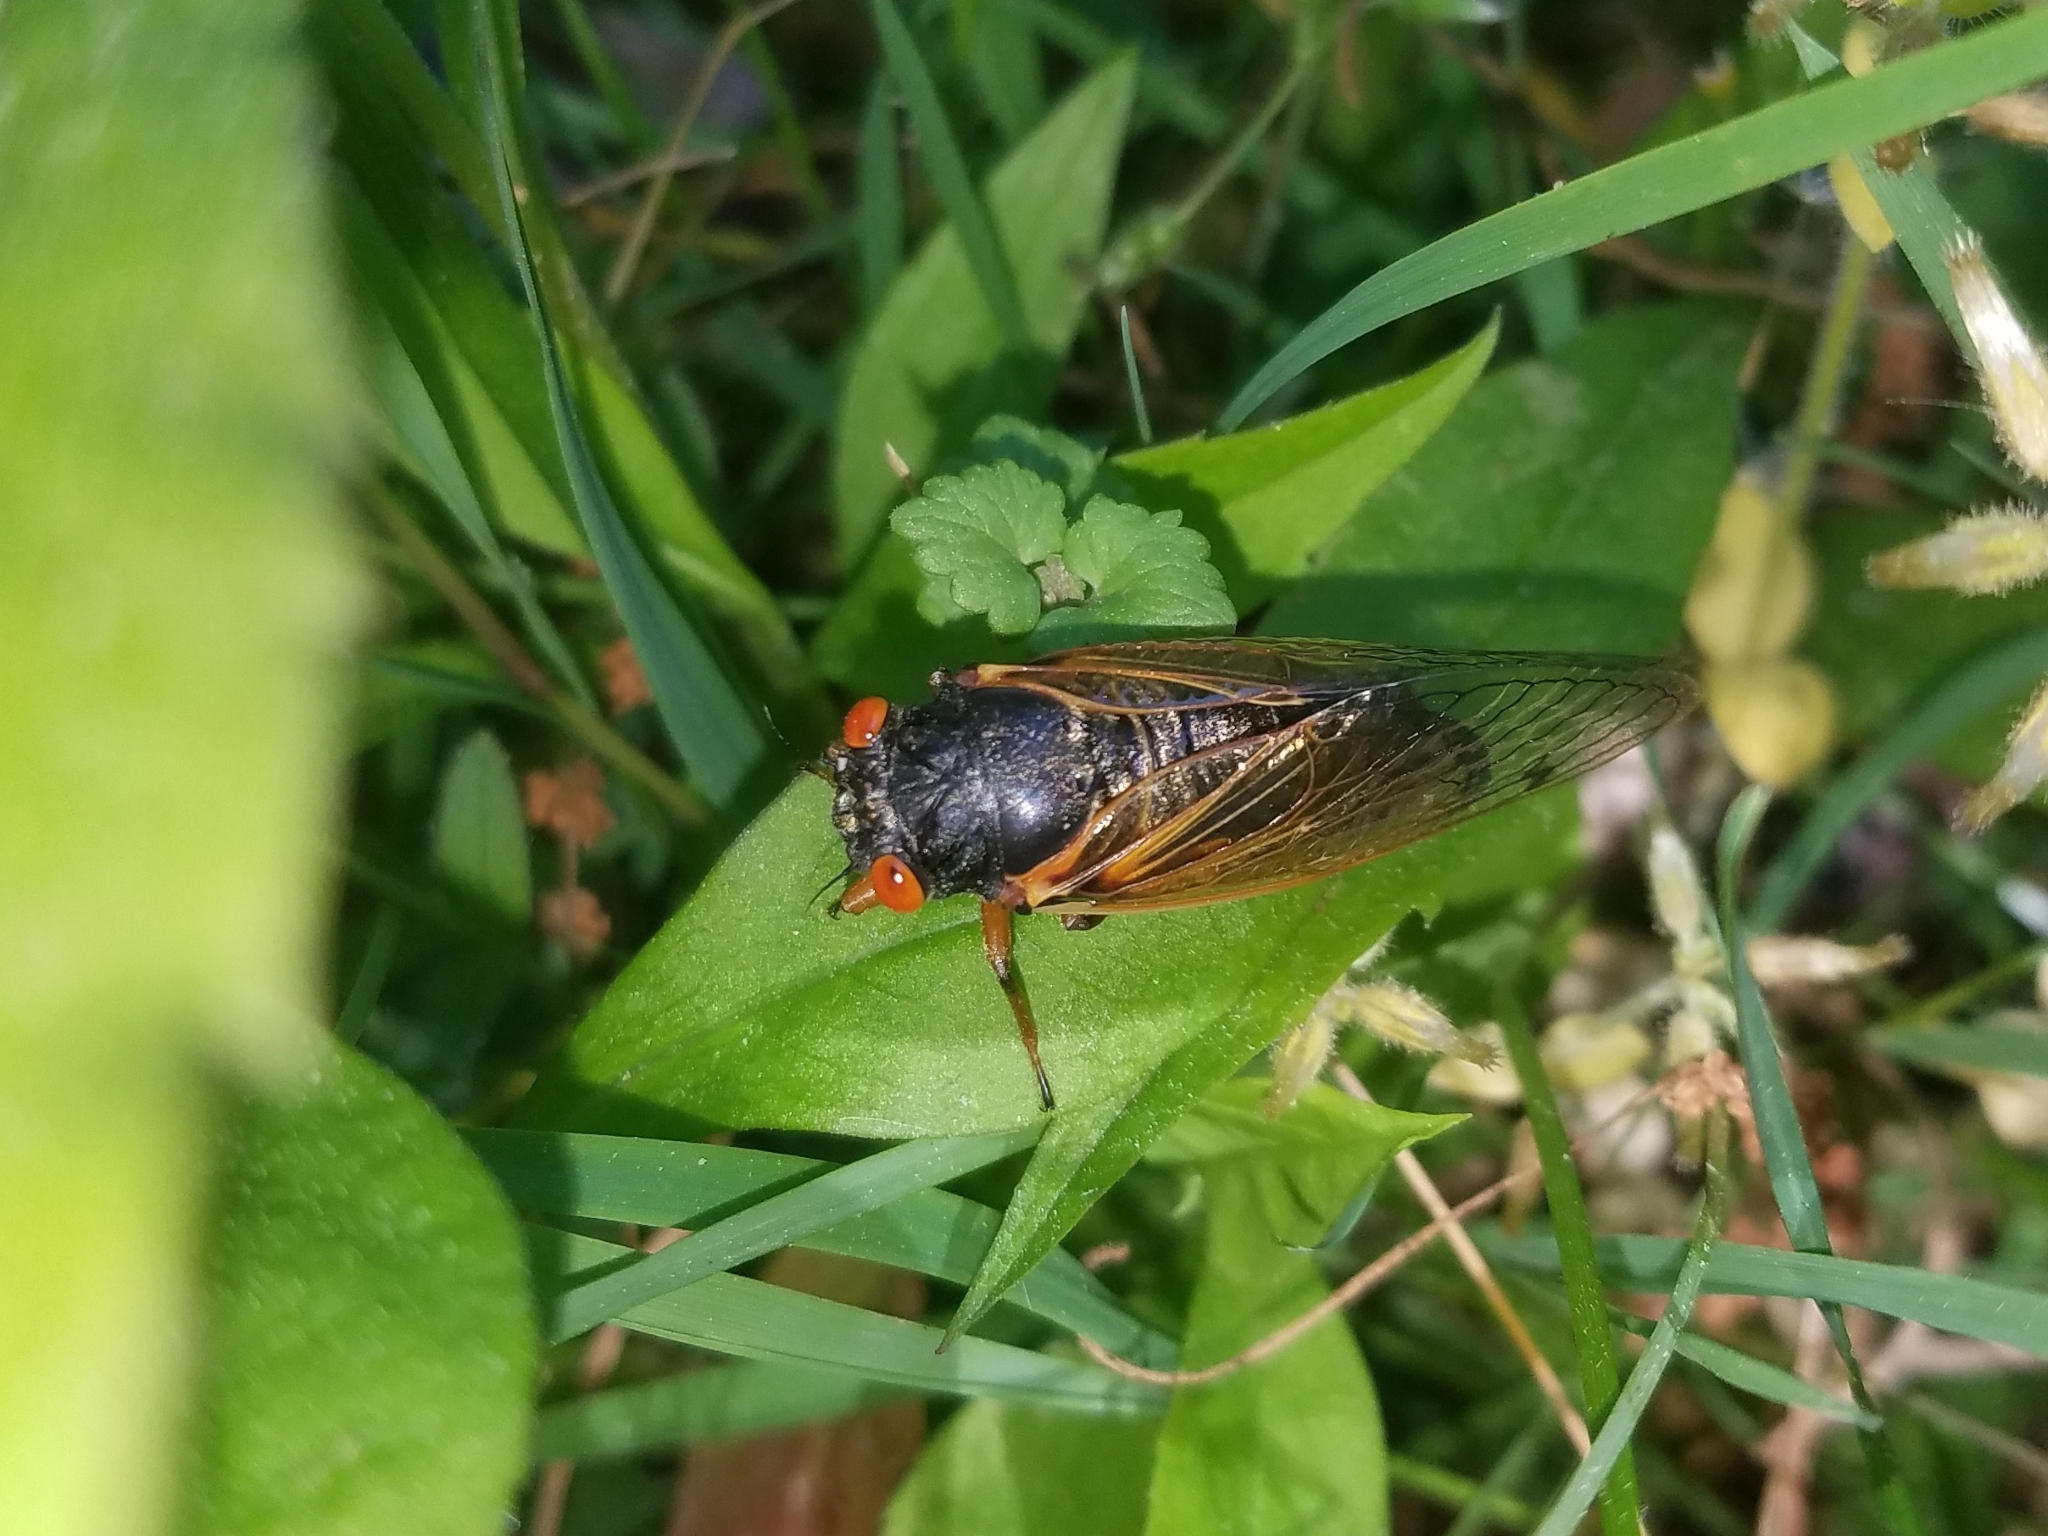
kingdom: Animalia
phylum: Arthropoda
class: Insecta
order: Hemiptera
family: Cicadidae
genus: Magicicada
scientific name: Magicicada
